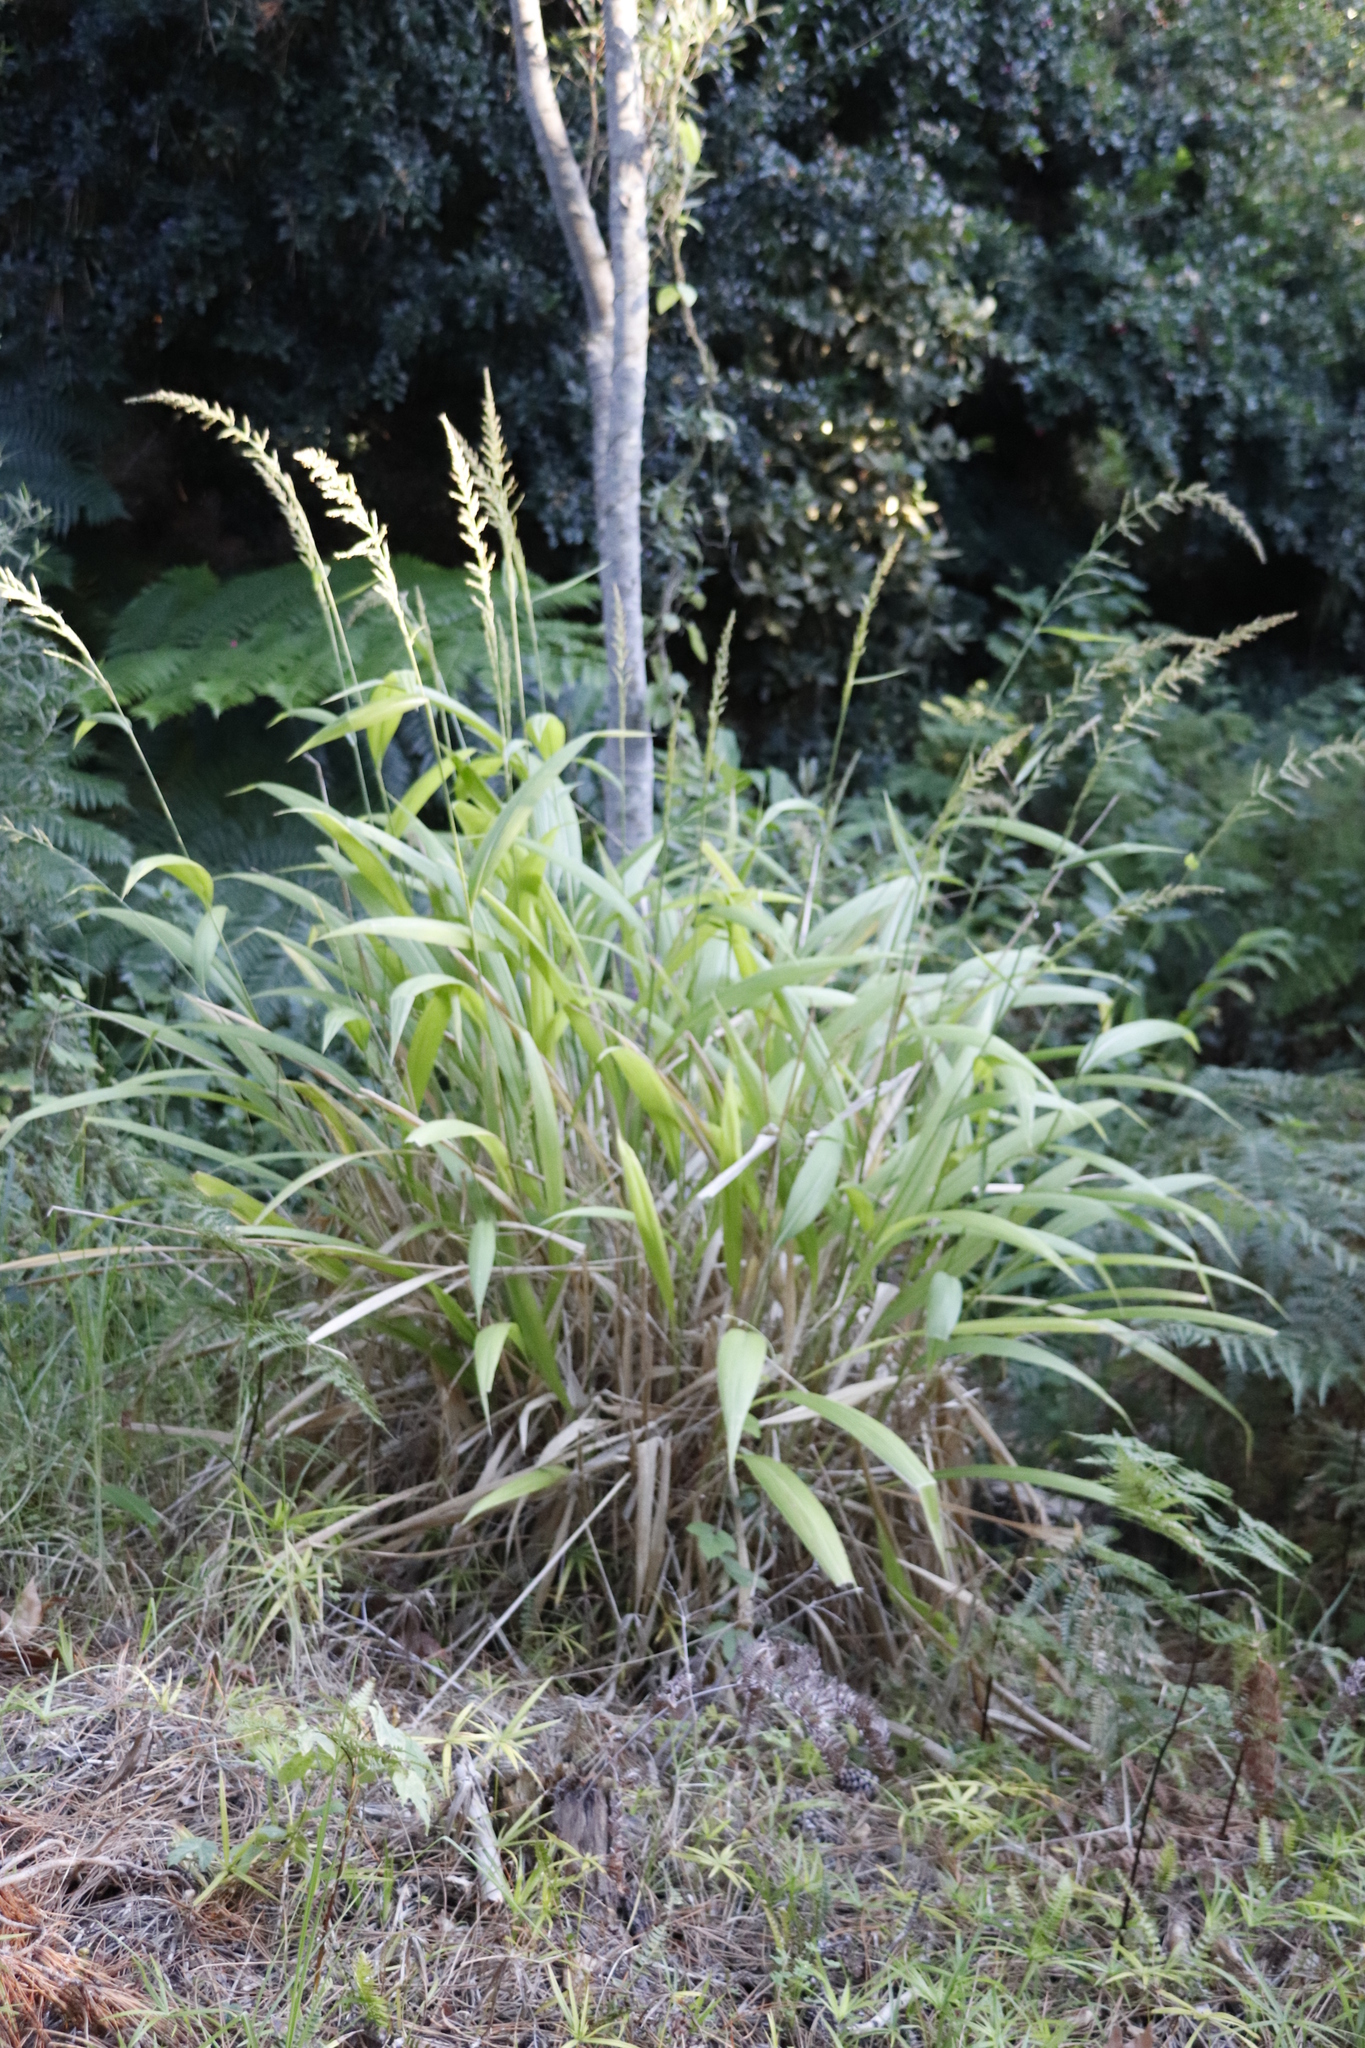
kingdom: Plantae
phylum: Tracheophyta
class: Liliopsida
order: Poales
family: Poaceae
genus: Setaria
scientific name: Setaria megaphylla
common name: Bigleaf bristlegrass
